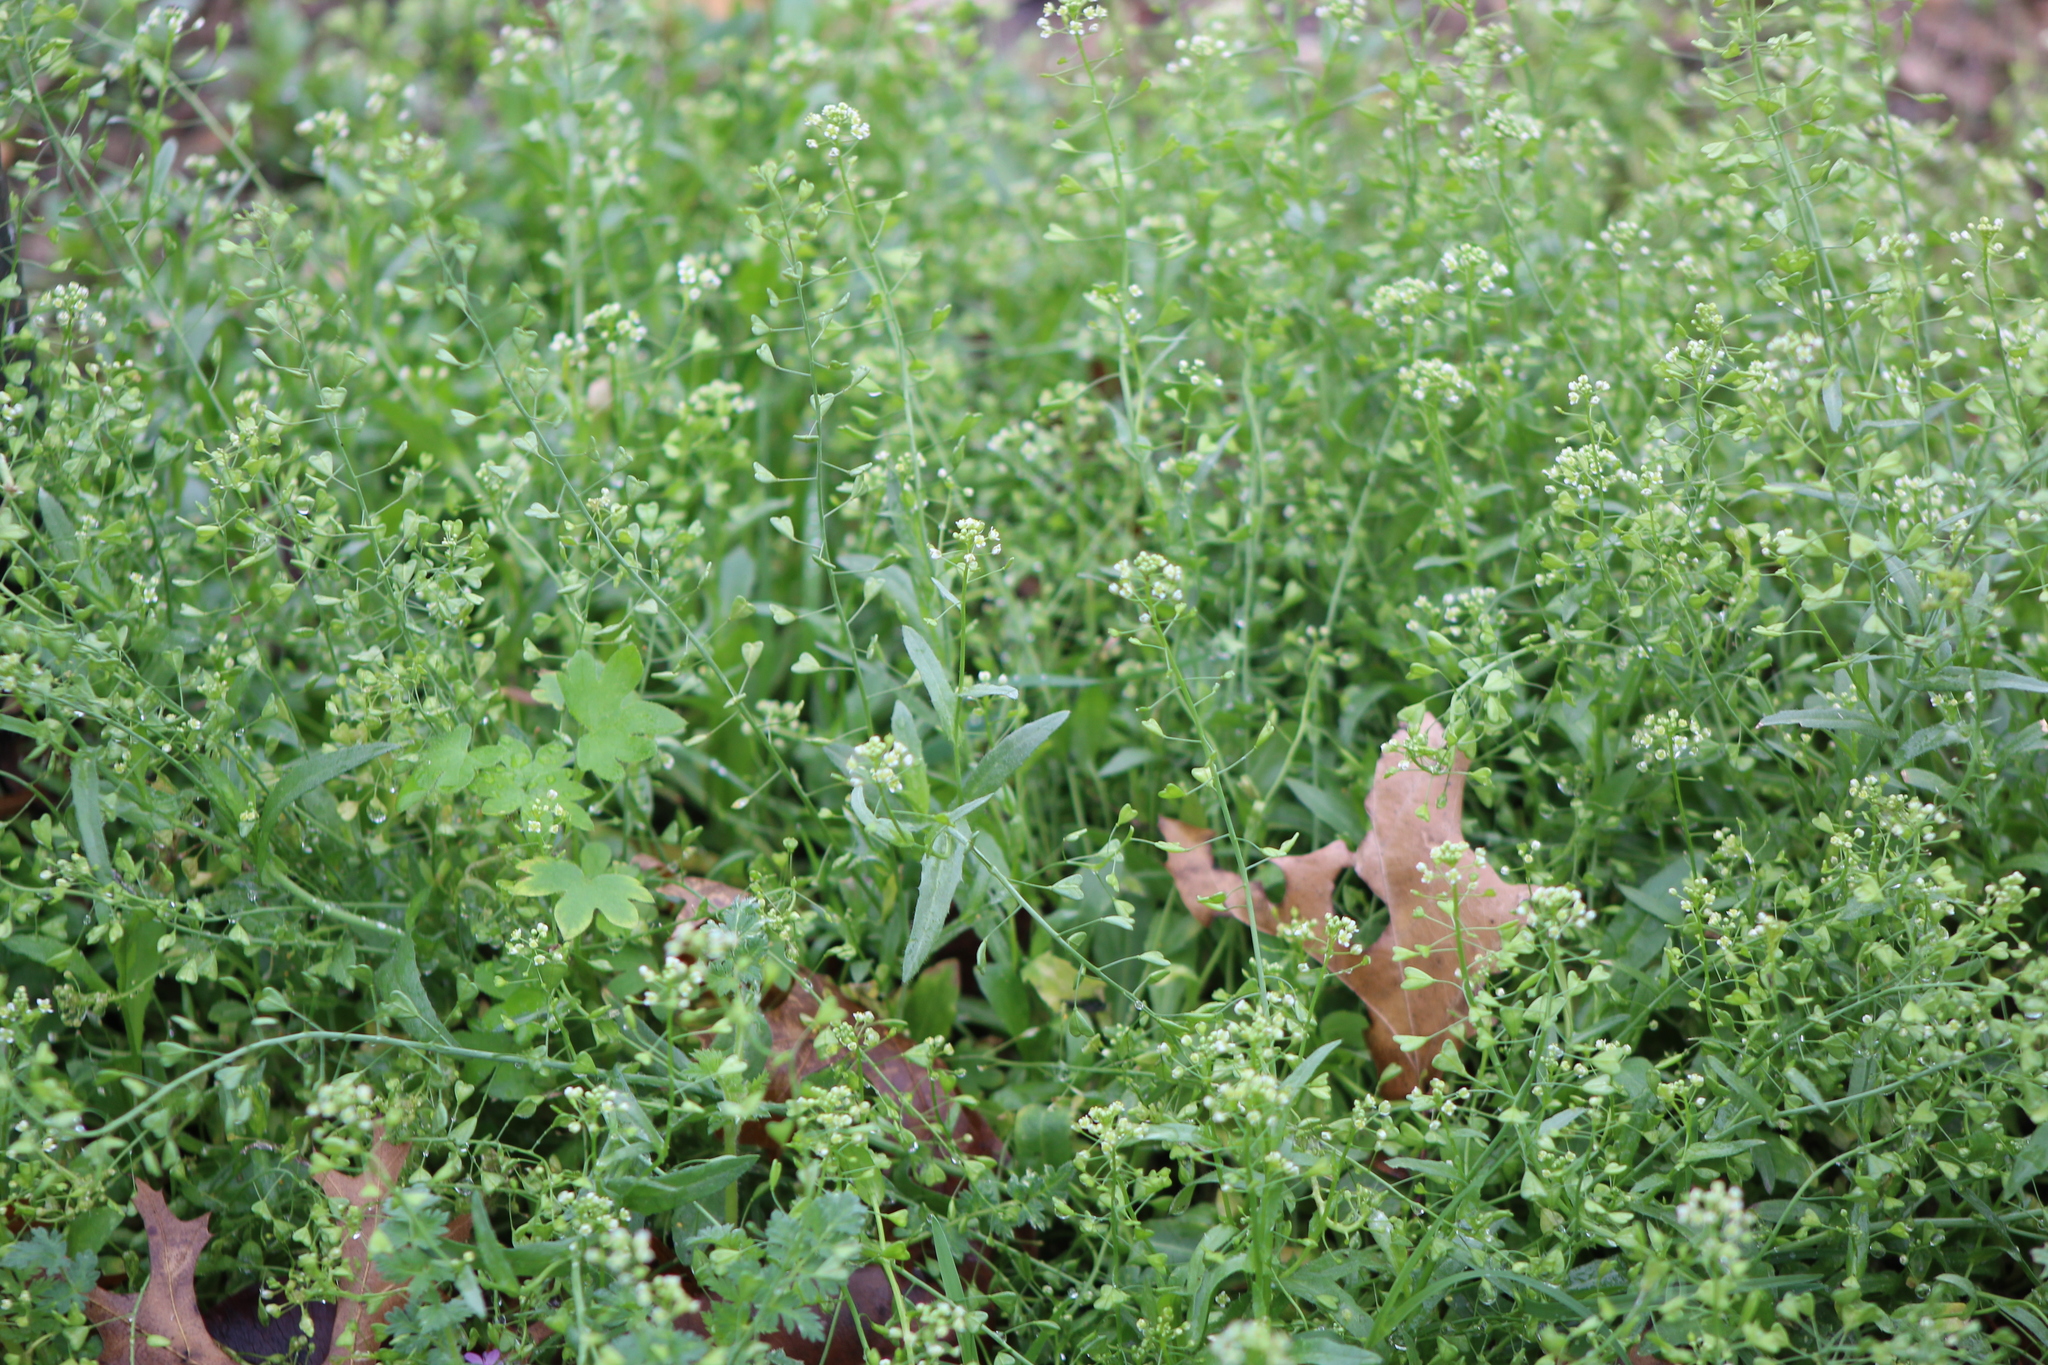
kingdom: Plantae
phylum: Tracheophyta
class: Magnoliopsida
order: Brassicales
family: Brassicaceae
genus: Capsella
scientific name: Capsella bursa-pastoris
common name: Shepherd's purse
